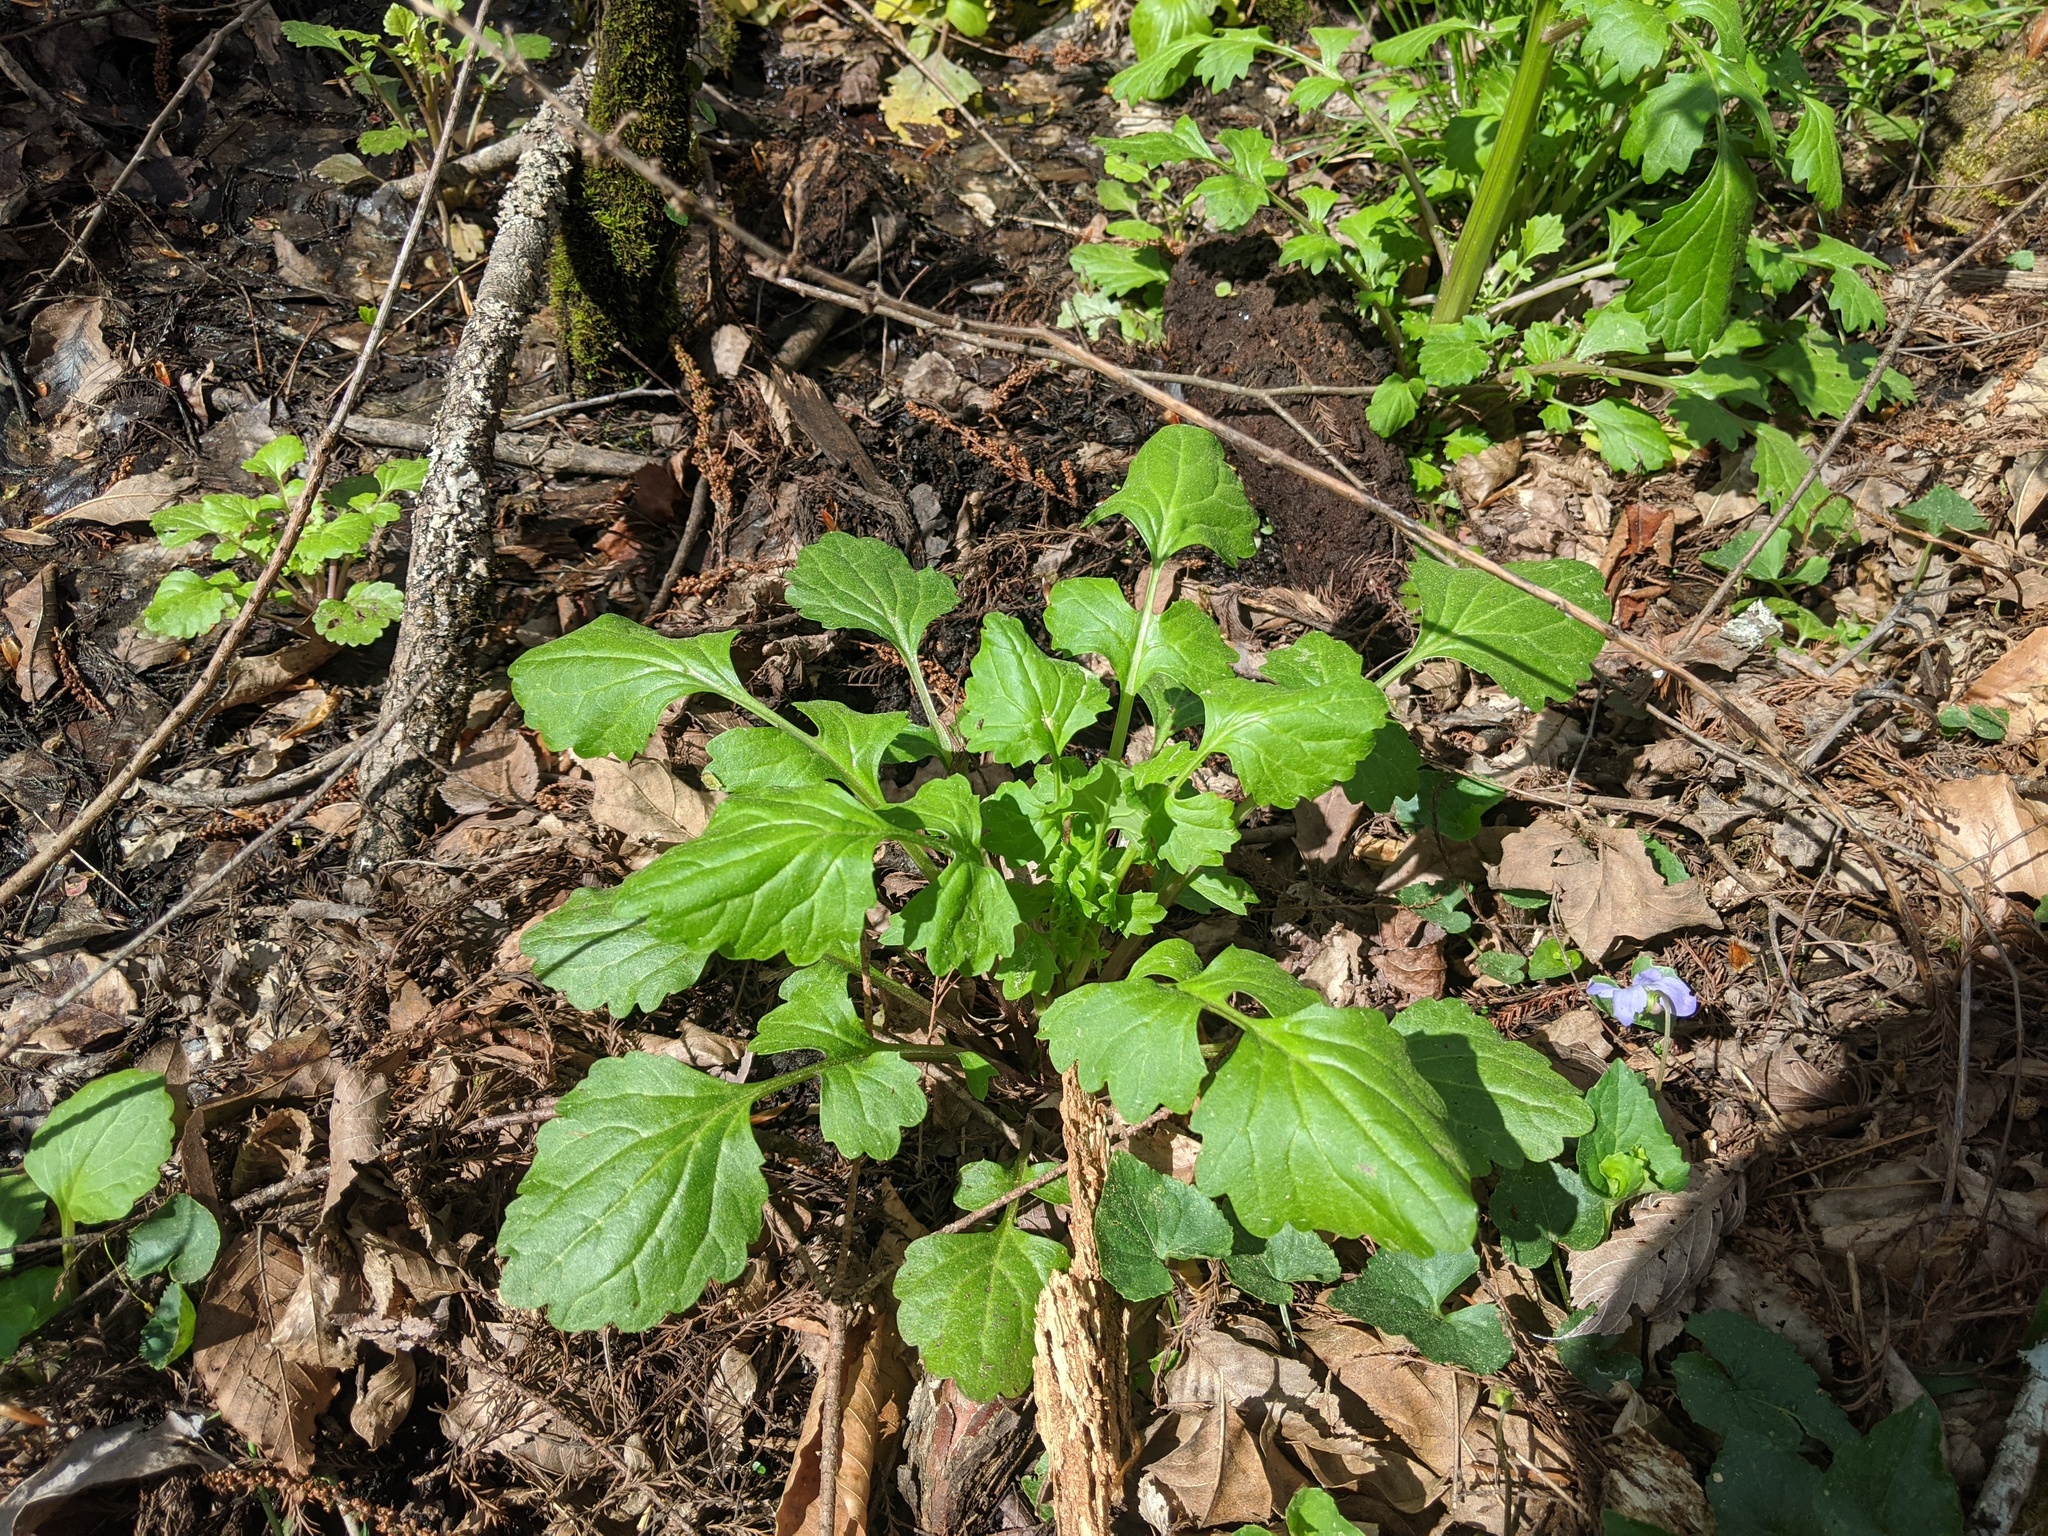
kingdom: Plantae
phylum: Tracheophyta
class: Magnoliopsida
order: Asterales
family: Asteraceae
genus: Packera
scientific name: Packera glabella
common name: Butterweed
